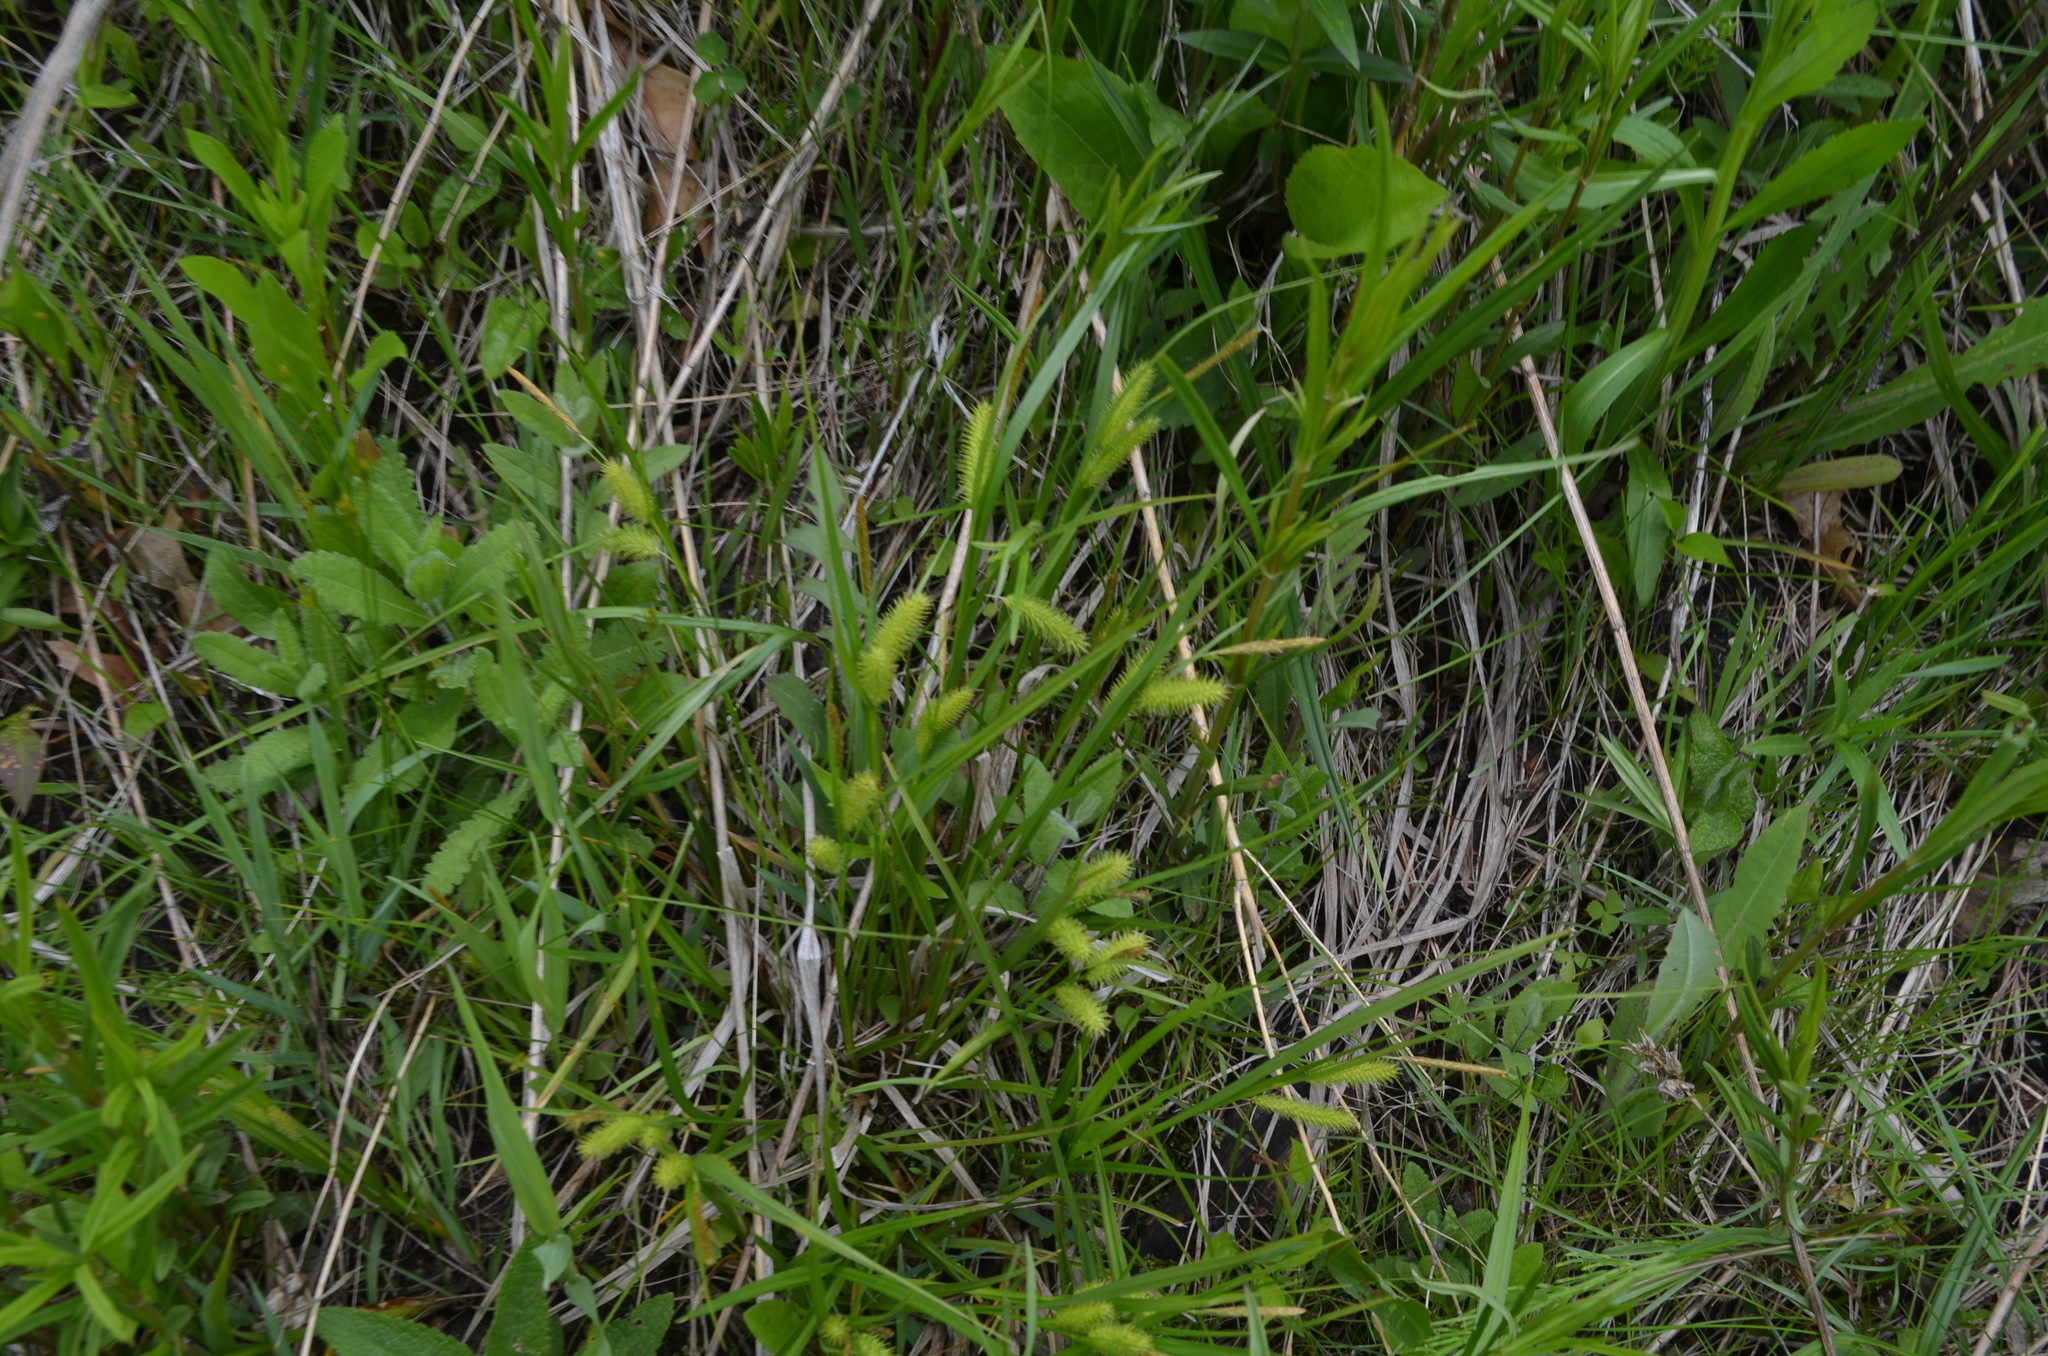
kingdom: Plantae
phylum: Tracheophyta
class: Liliopsida
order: Poales
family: Cyperaceae
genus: Carex
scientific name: Carex hystericina
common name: Bottlebrush sedge
